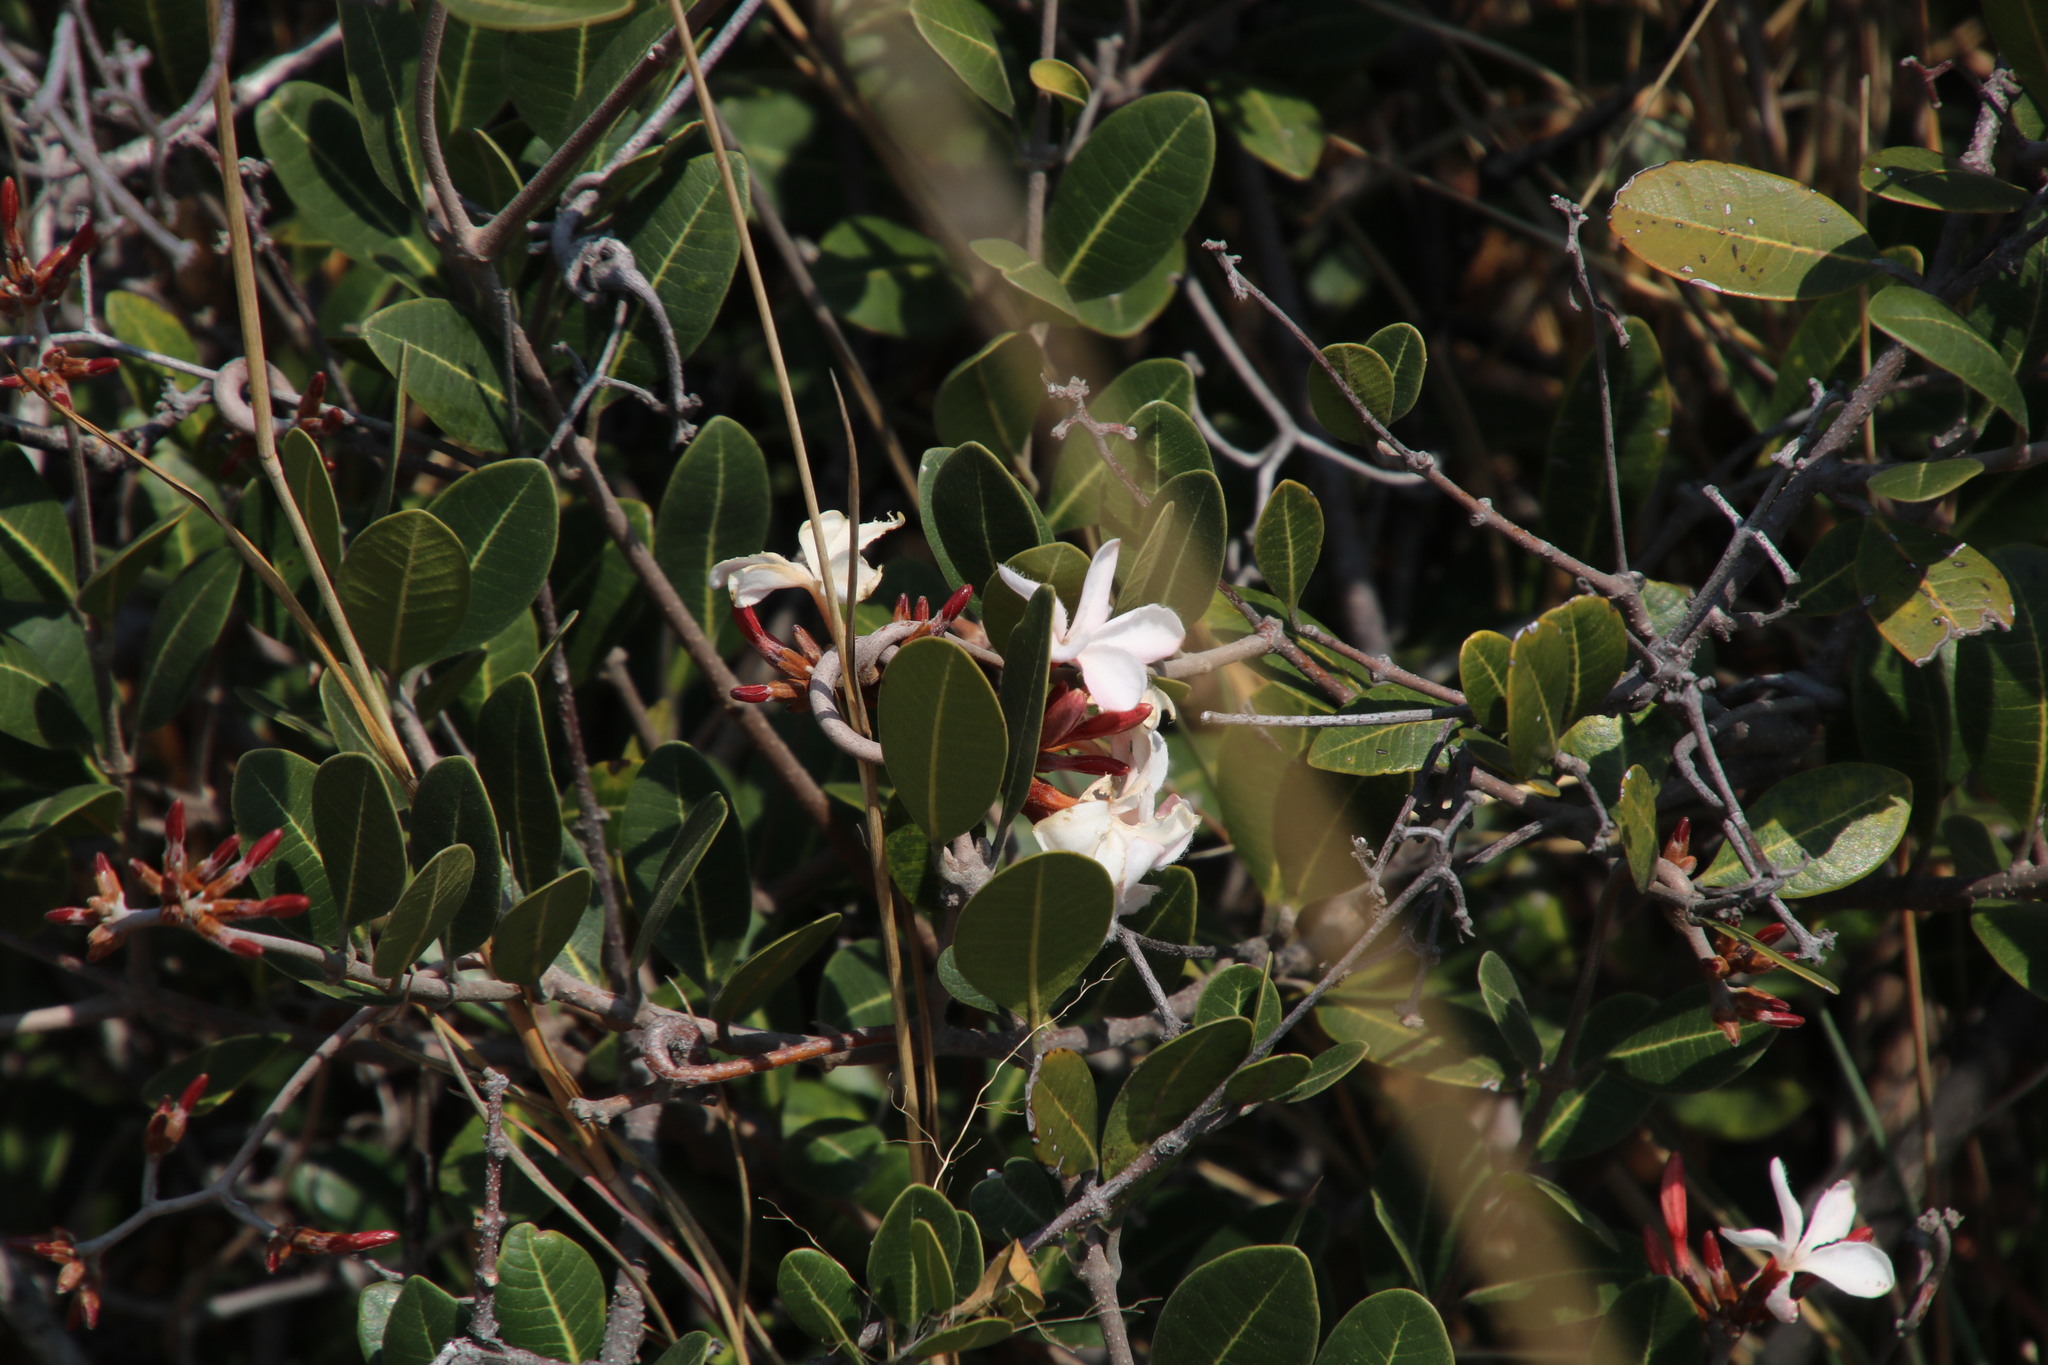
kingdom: Plantae
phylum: Tracheophyta
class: Magnoliopsida
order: Gentianales
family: Apocynaceae
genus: Ancylobothrys
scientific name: Ancylobothrys capensis
